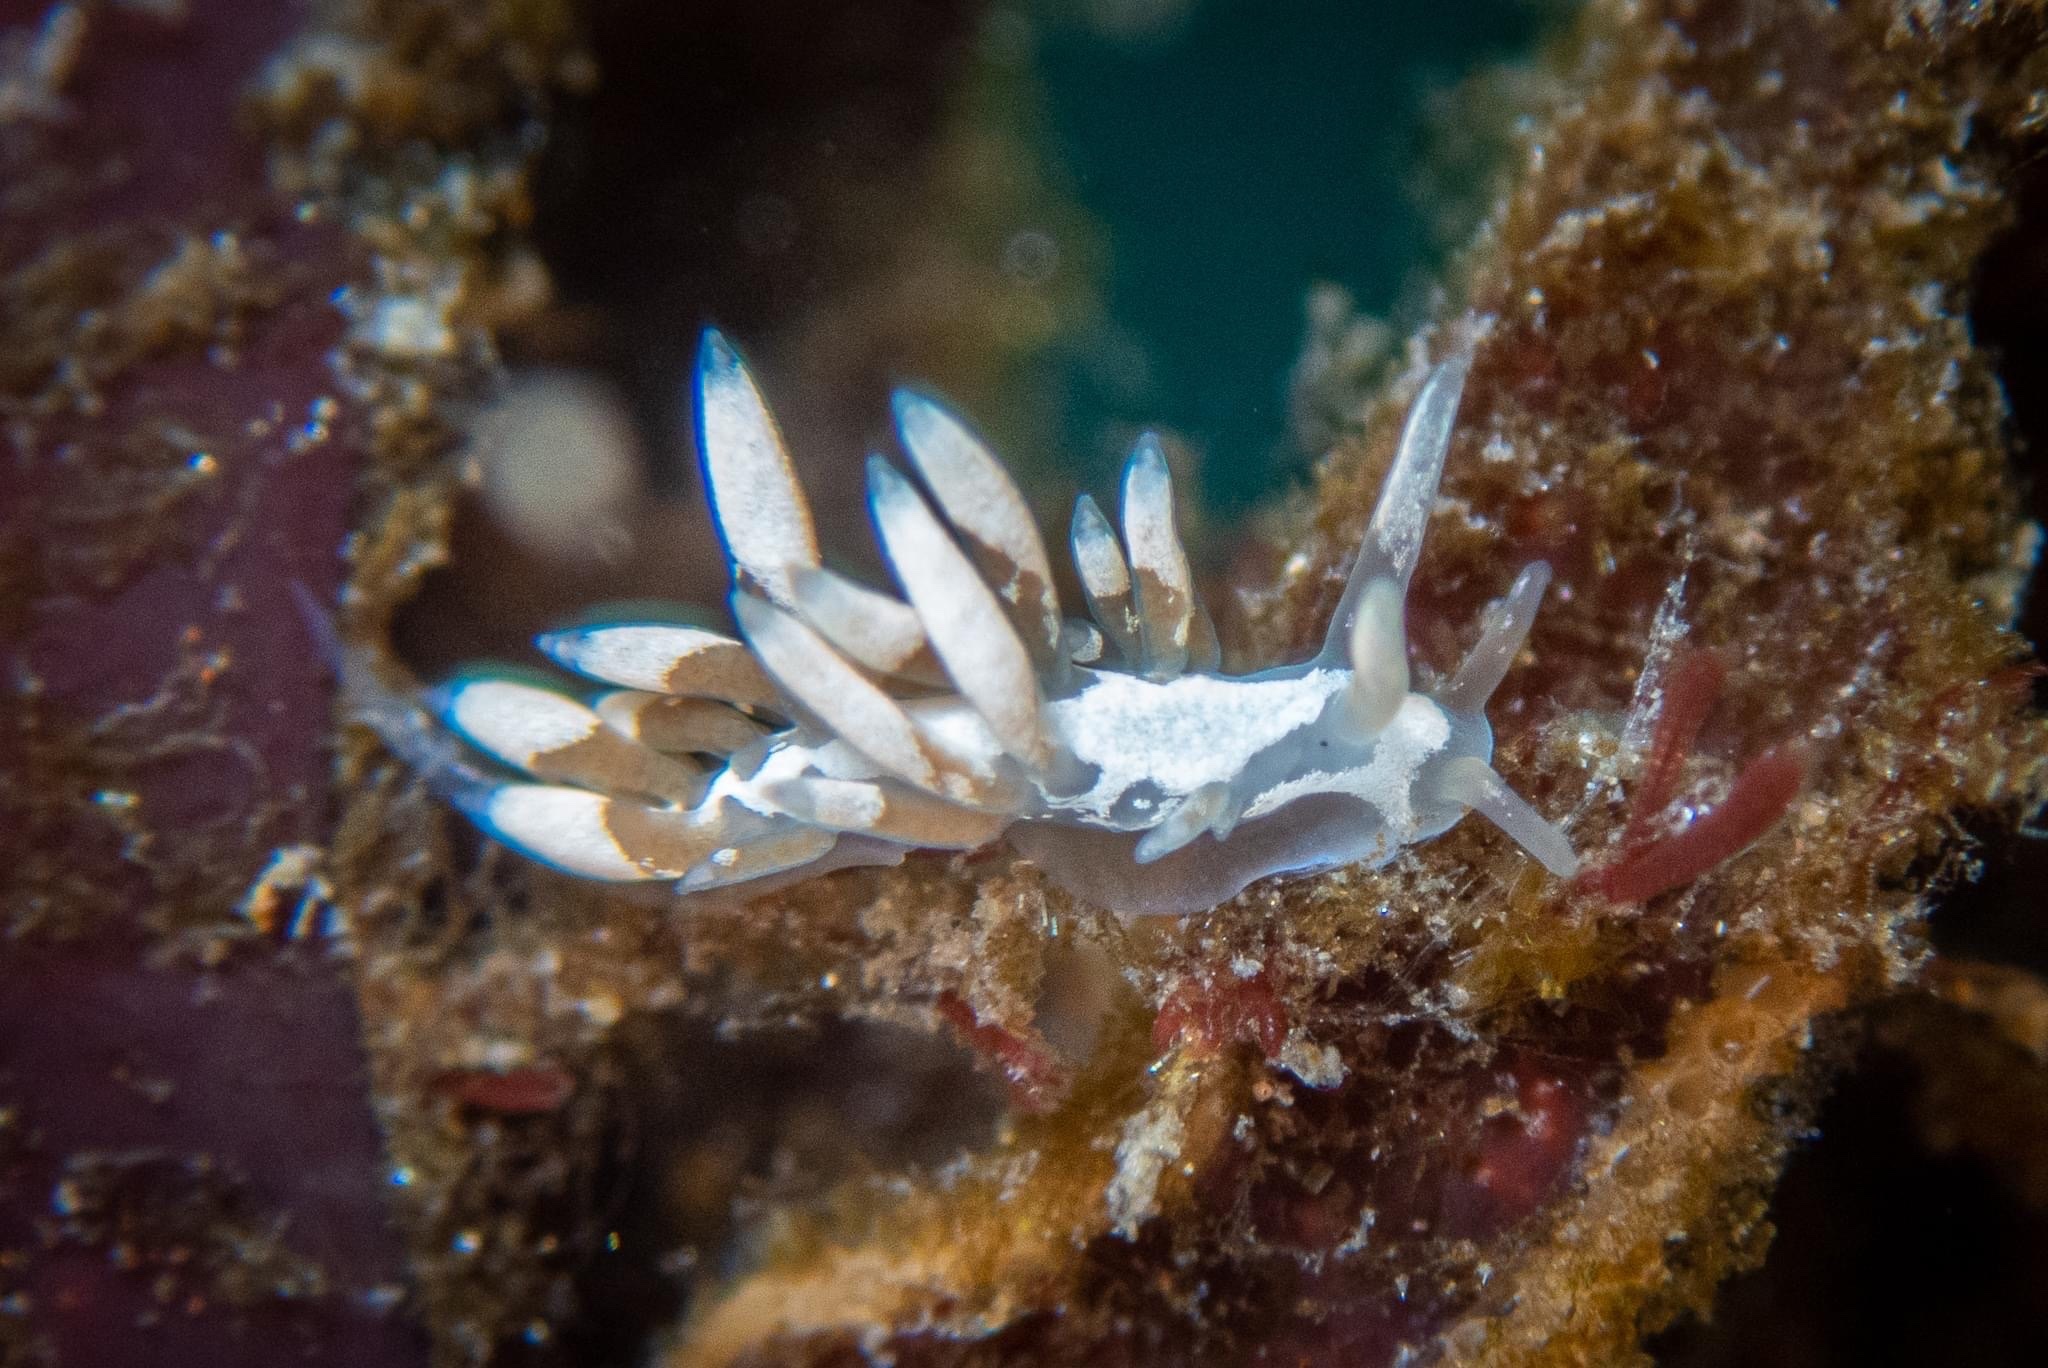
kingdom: Animalia
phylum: Mollusca
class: Gastropoda
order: Nudibranchia
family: Trinchesiidae
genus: Trinchesia
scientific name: Trinchesia albocrusta
